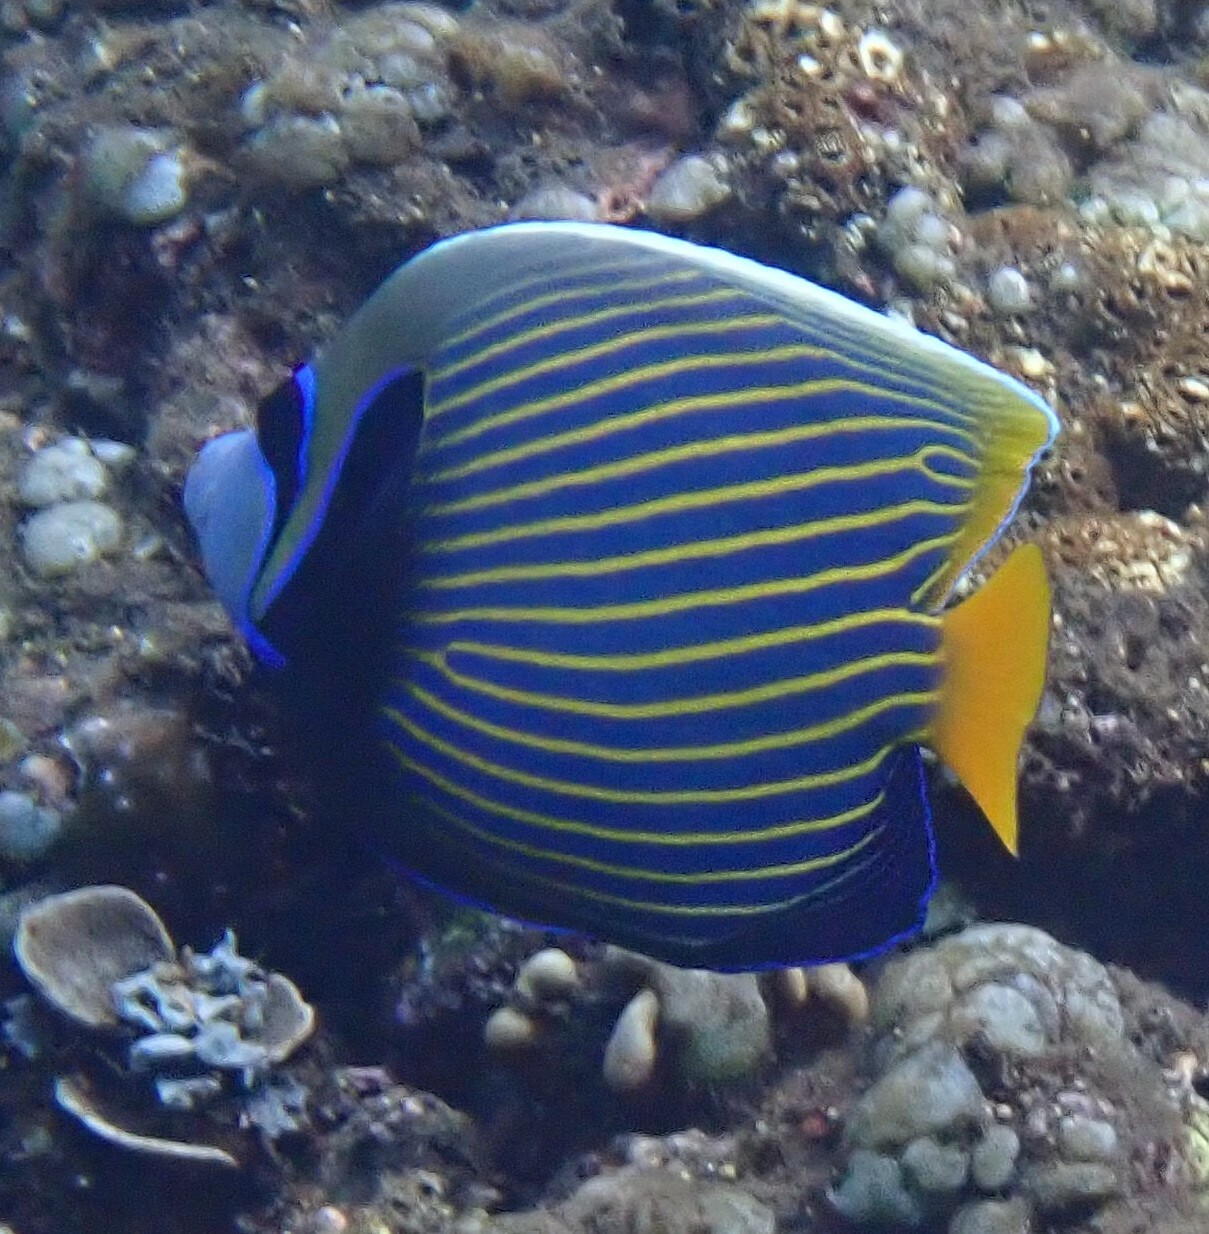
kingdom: Animalia
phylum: Chordata
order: Perciformes
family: Pomacanthidae
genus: Pomacanthus
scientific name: Pomacanthus imperator
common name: Emperor angelfish
